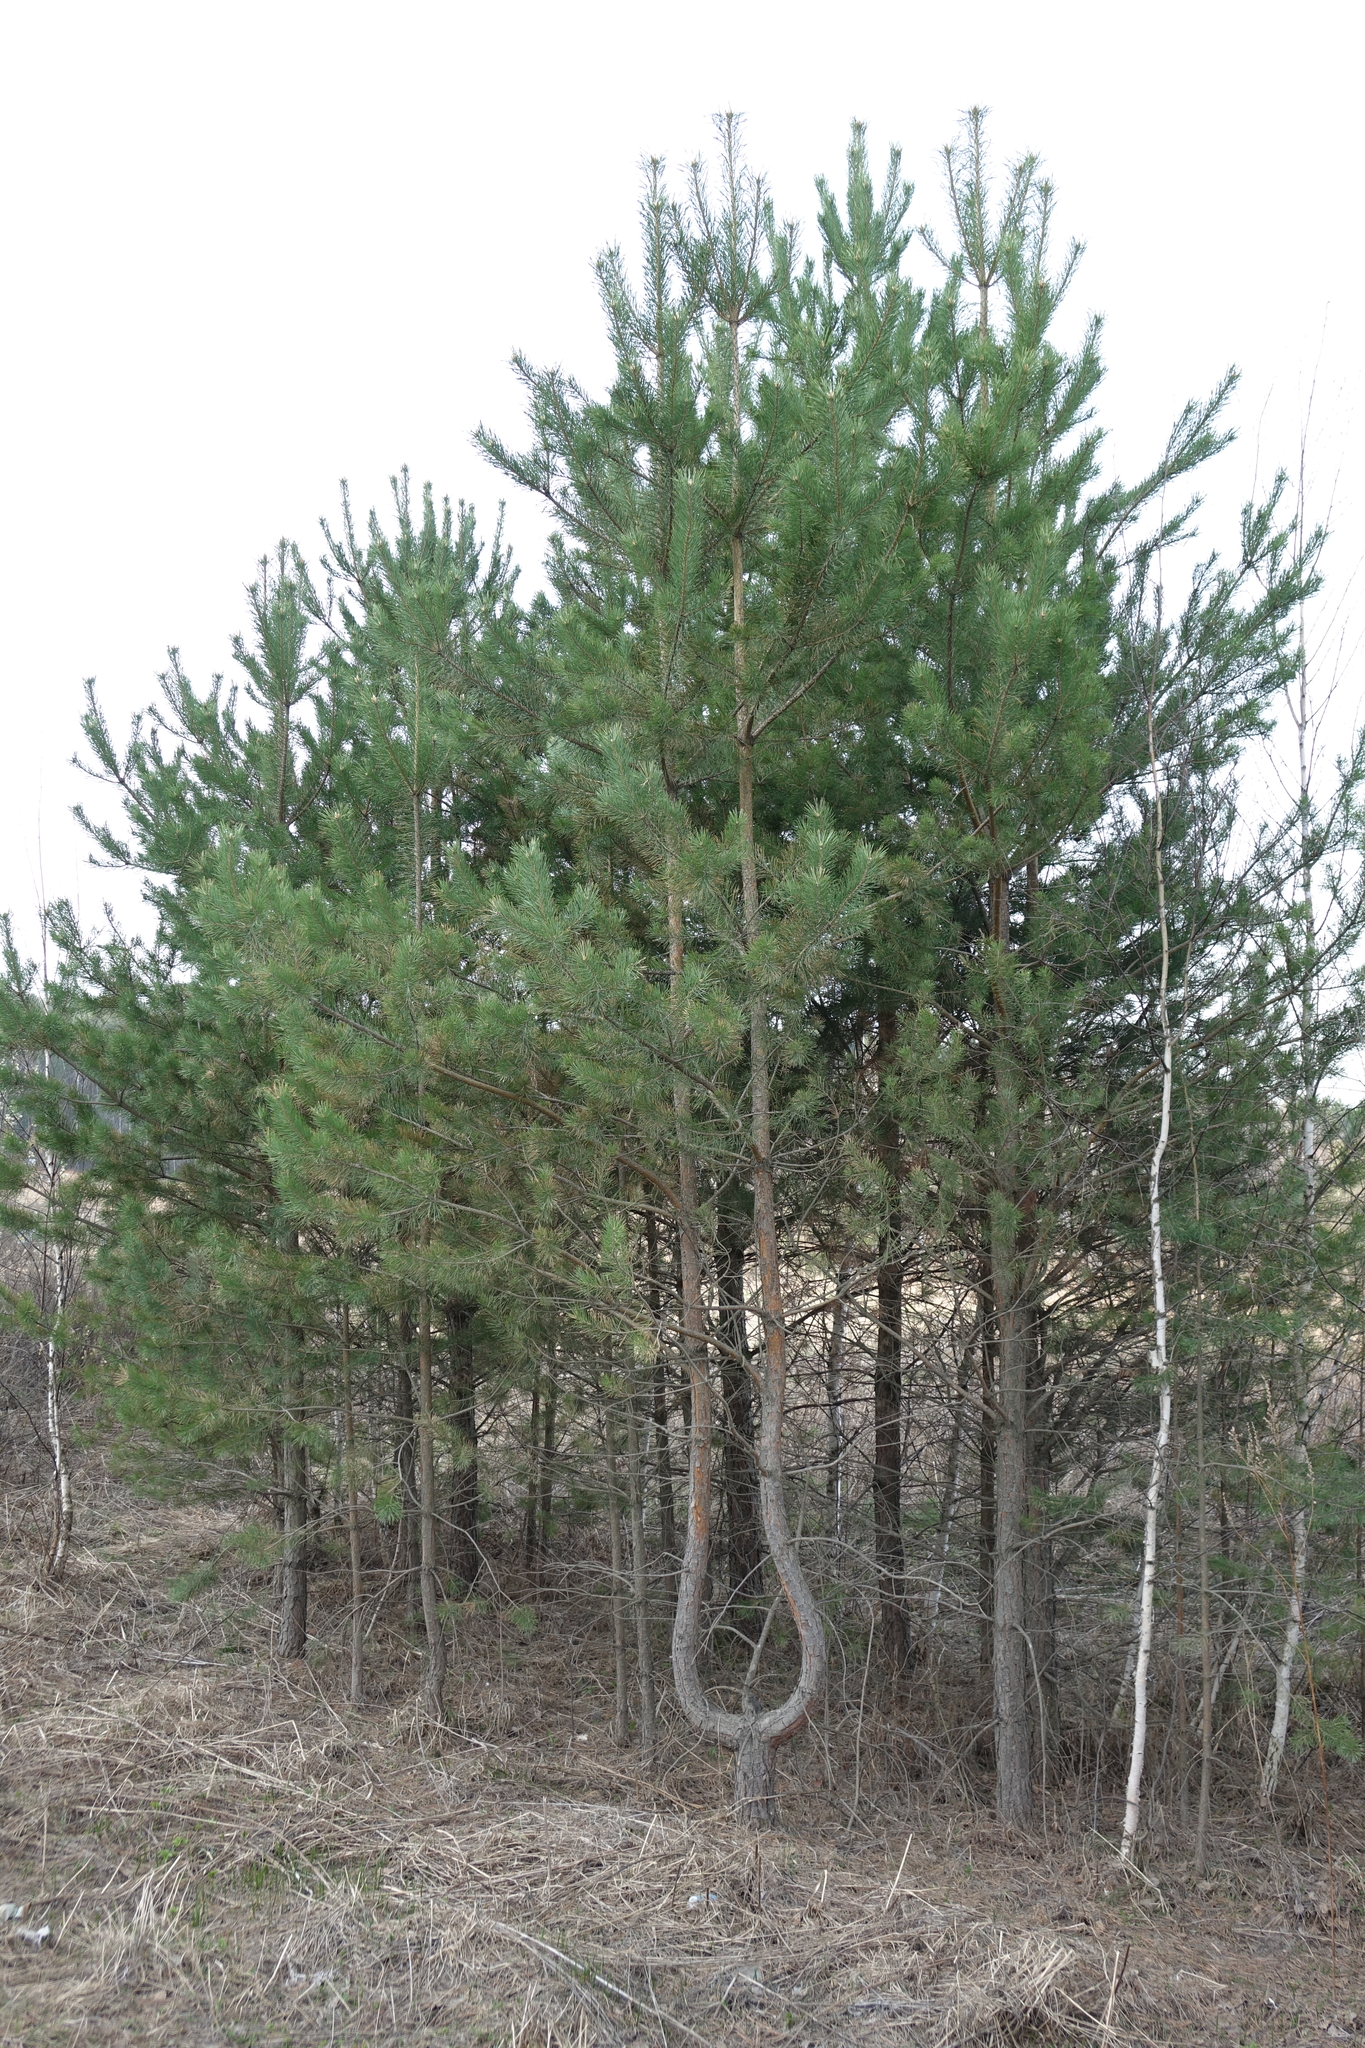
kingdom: Plantae
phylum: Tracheophyta
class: Pinopsida
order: Pinales
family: Pinaceae
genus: Pinus
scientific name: Pinus sylvestris
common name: Scots pine
